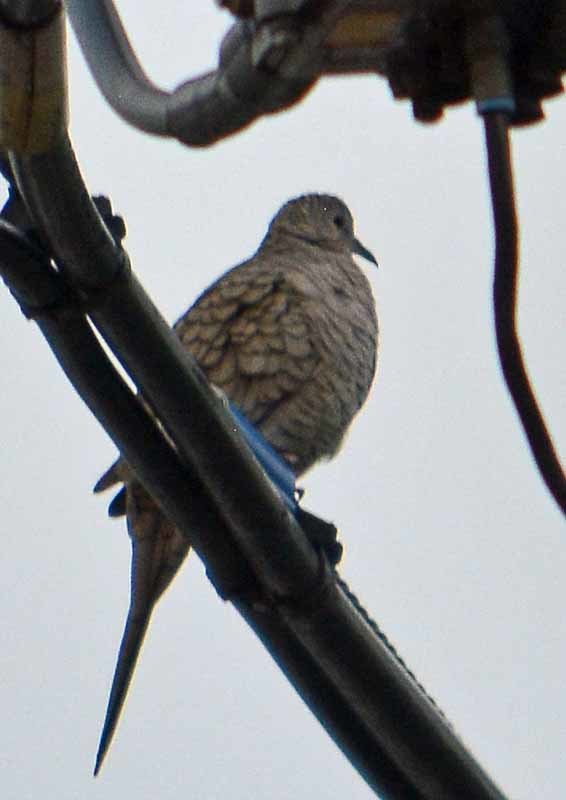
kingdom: Animalia
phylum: Chordata
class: Aves
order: Columbiformes
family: Columbidae
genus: Columbina
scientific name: Columbina inca
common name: Inca dove
